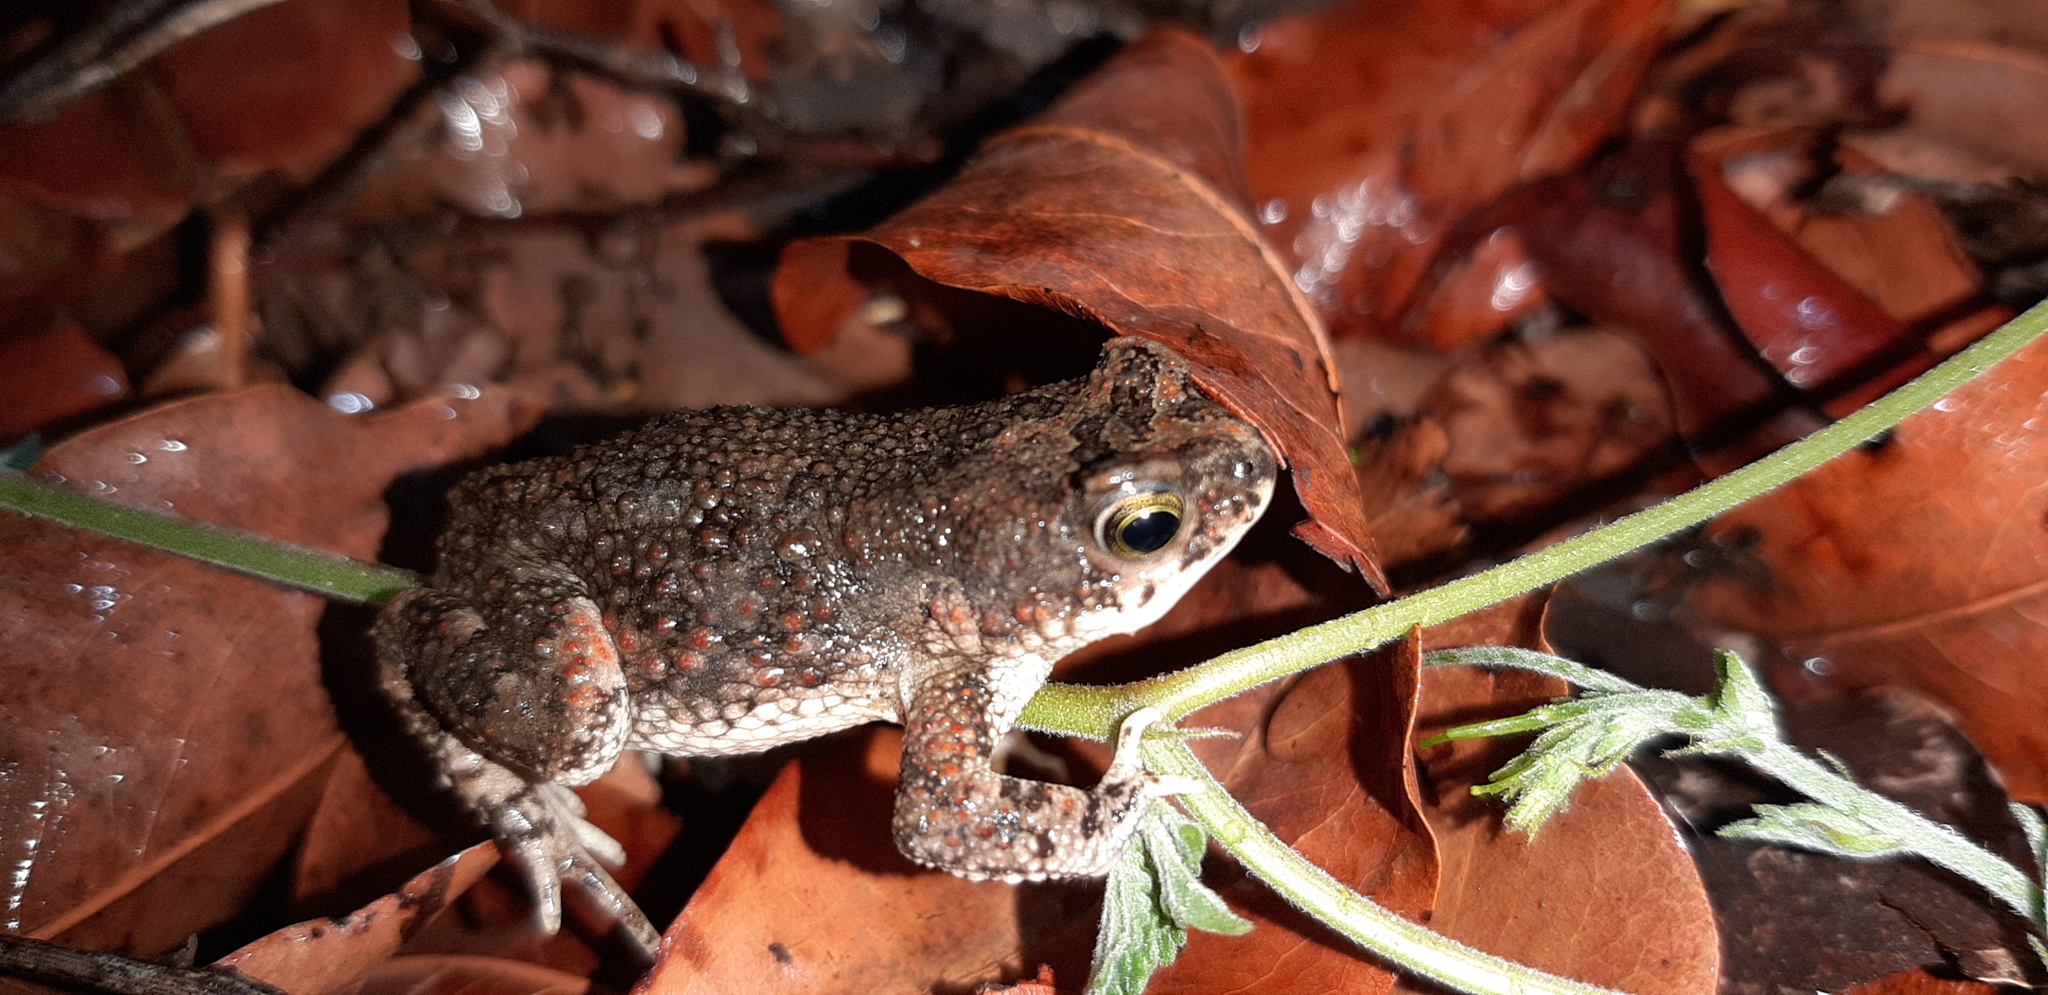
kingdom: Animalia
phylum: Chordata
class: Amphibia
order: Anura
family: Bufonidae
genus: Poyntonophrynus
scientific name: Poyntonophrynus fenoulheti
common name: Fenoulhet's toad
